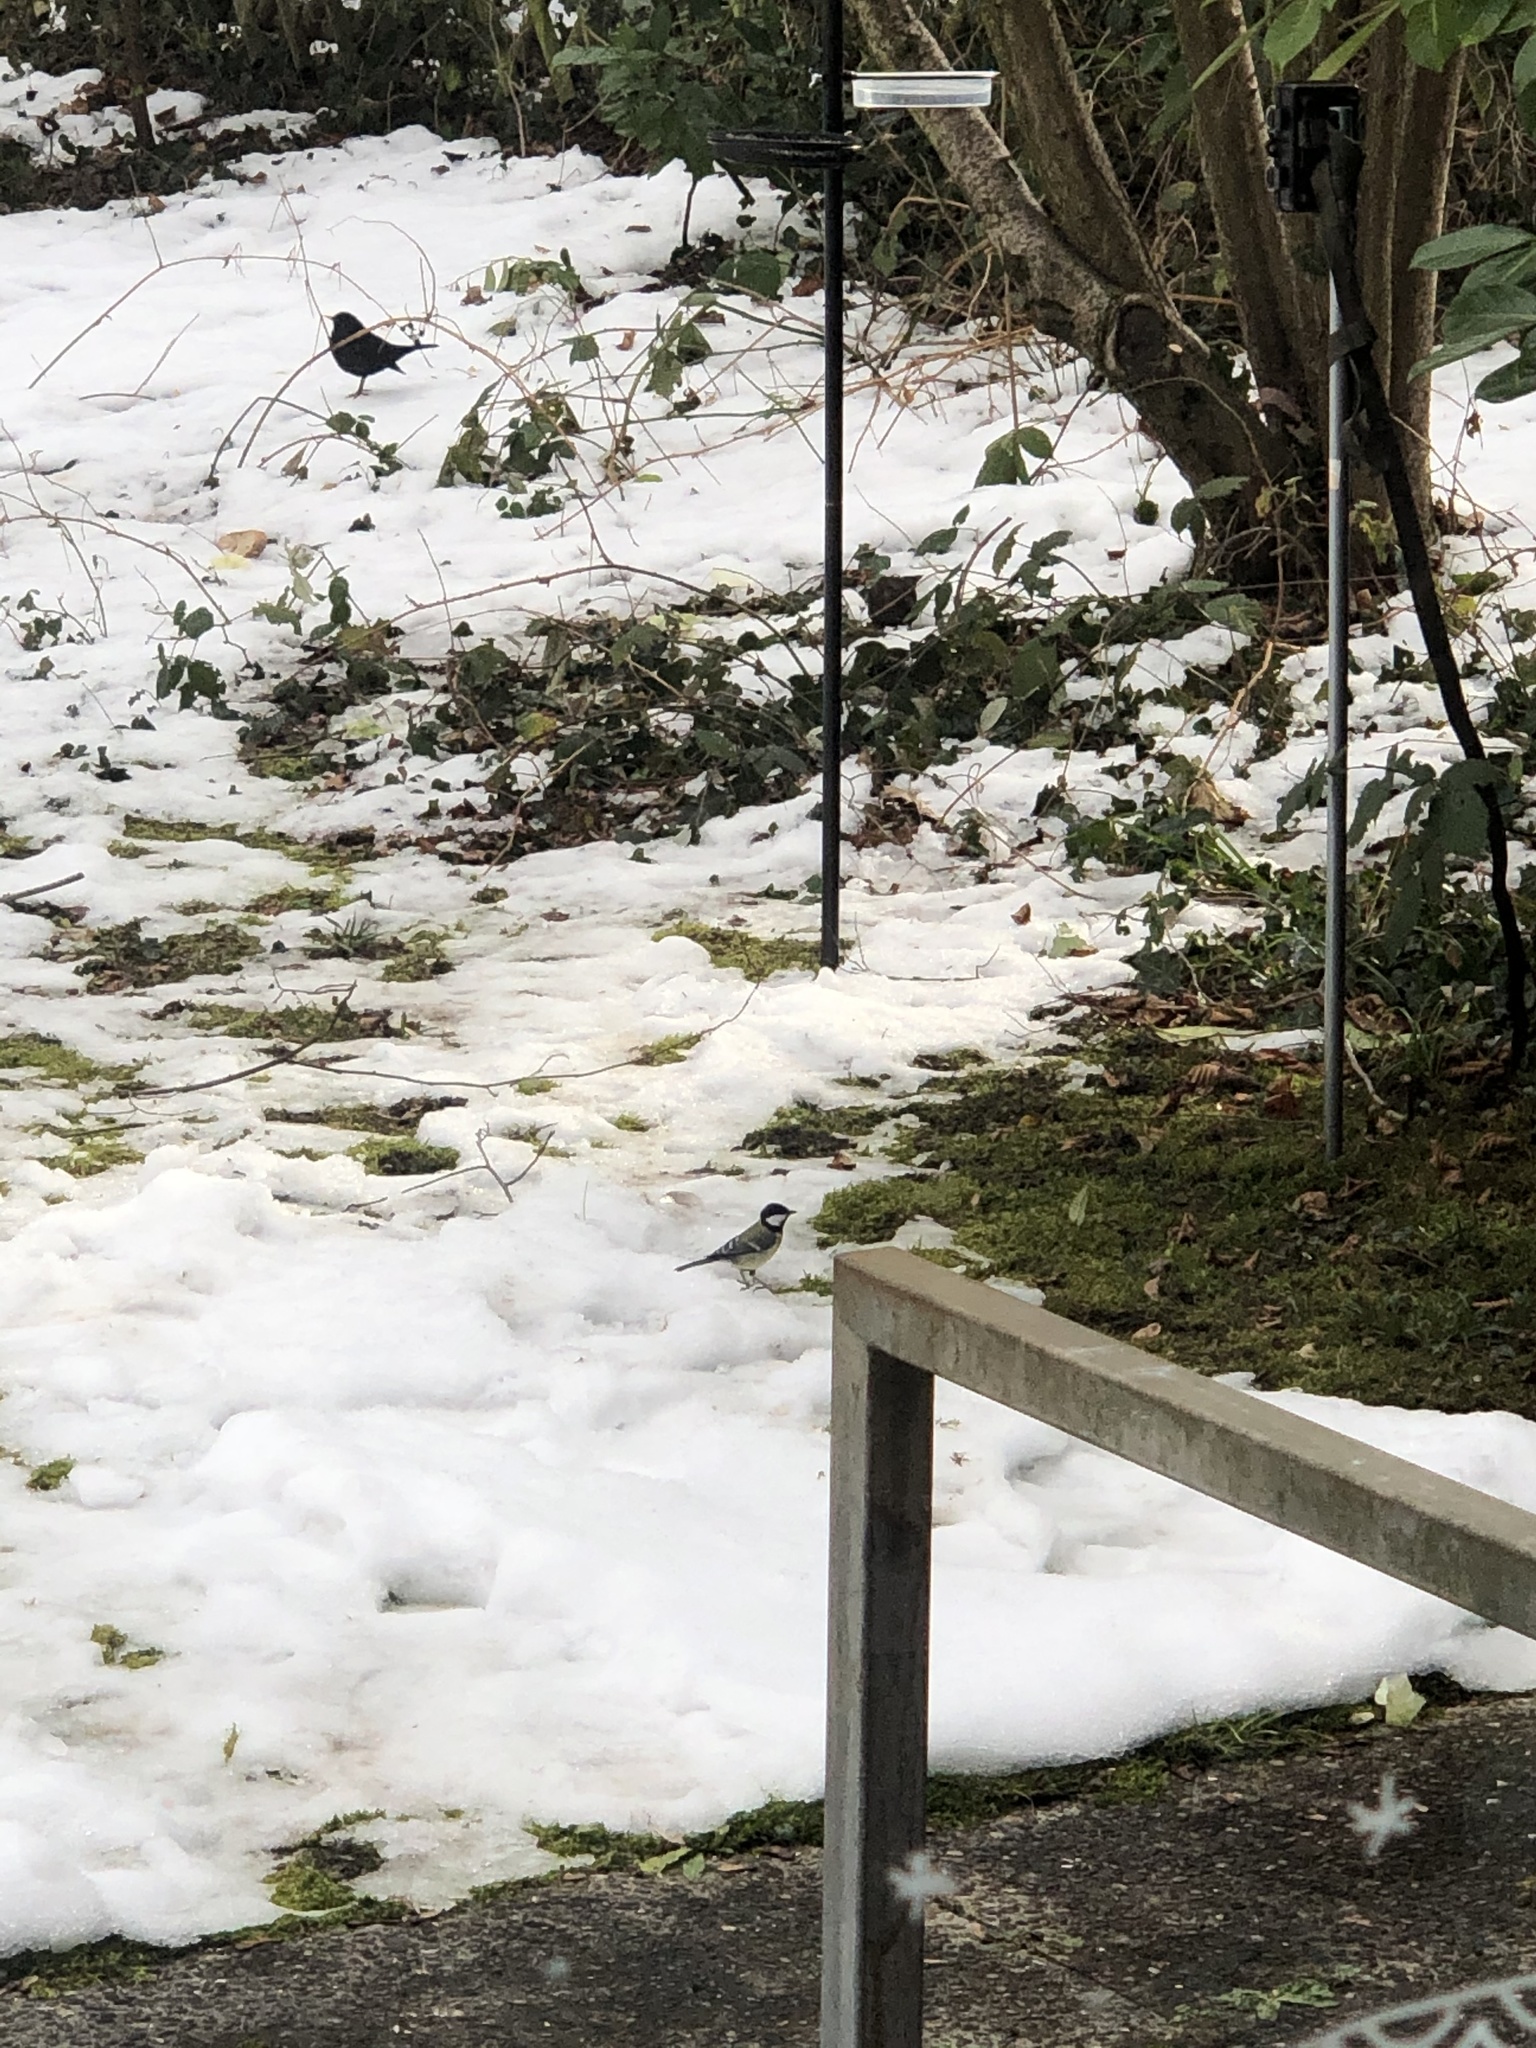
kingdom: Animalia
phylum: Chordata
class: Aves
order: Passeriformes
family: Paridae
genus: Parus
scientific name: Parus major
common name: Great tit
